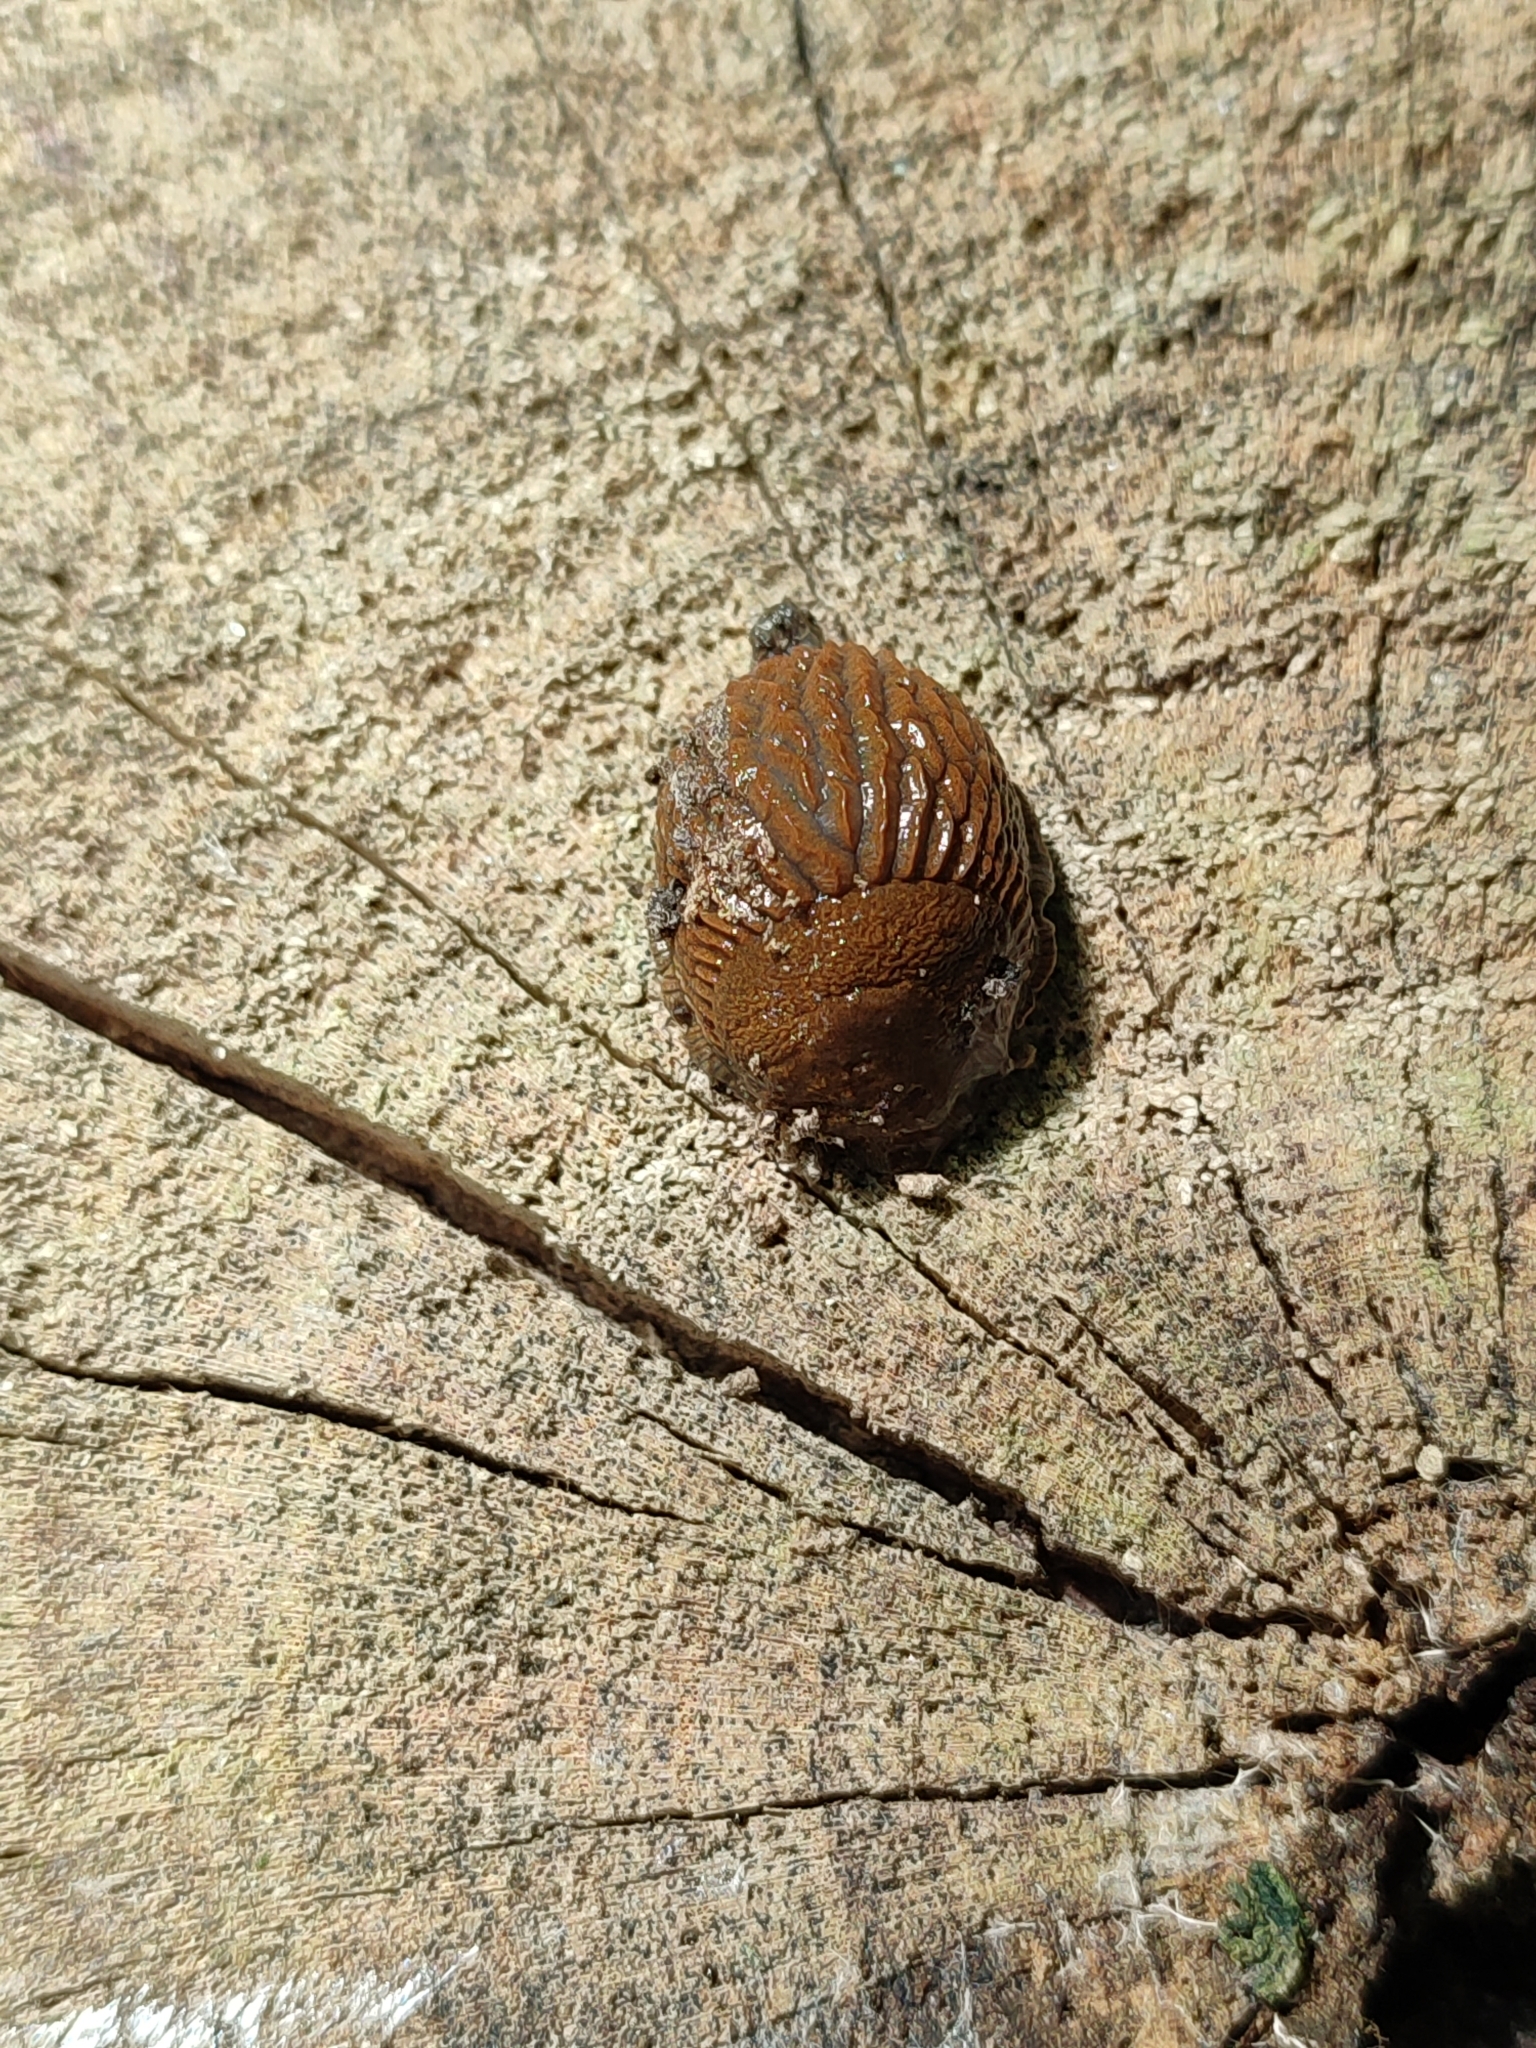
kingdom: Animalia
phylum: Mollusca
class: Gastropoda
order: Stylommatophora
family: Arionidae
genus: Arion
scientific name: Arion vulgaris
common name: Lusitanian slug
